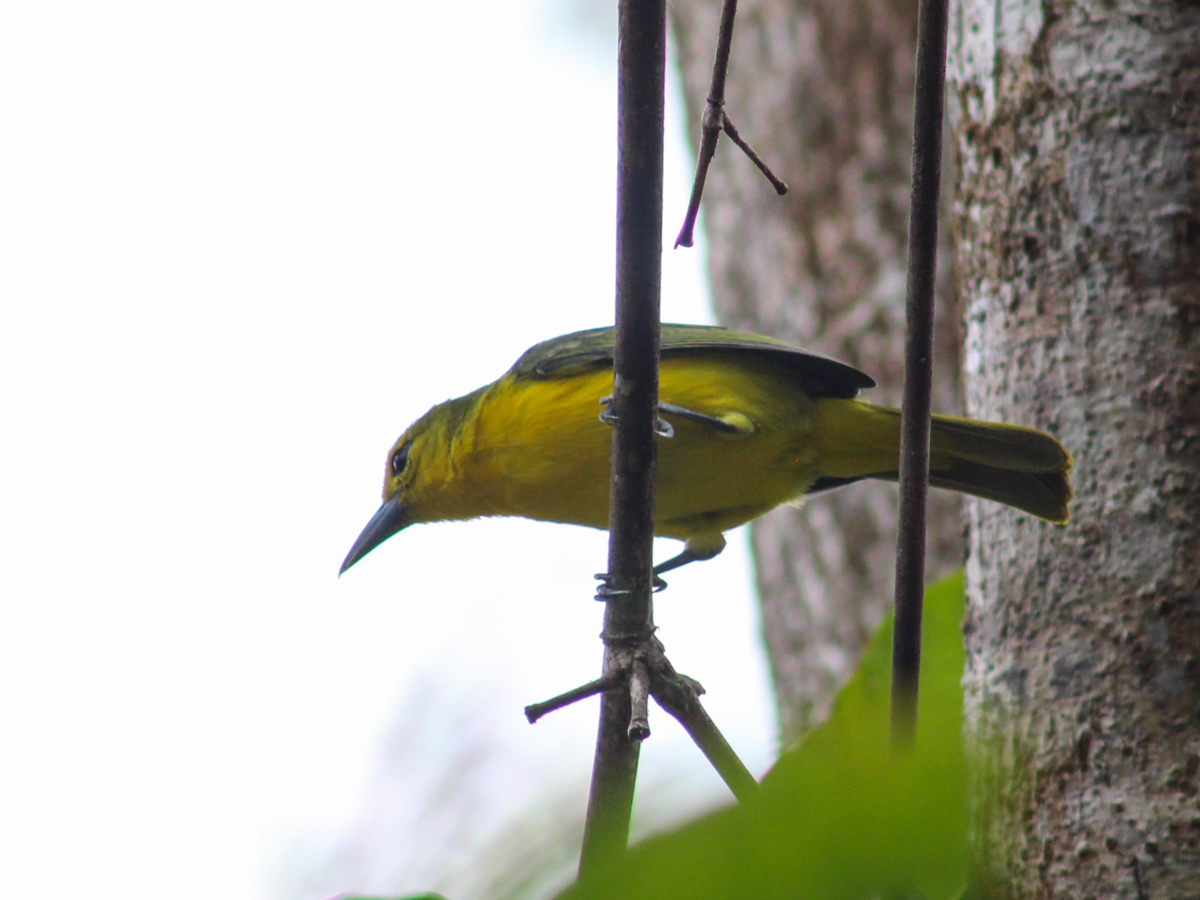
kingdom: Animalia
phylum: Chordata
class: Aves
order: Passeriformes
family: Aegithinidae
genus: Aegithina
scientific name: Aegithina lafresnayei
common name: Great iora
